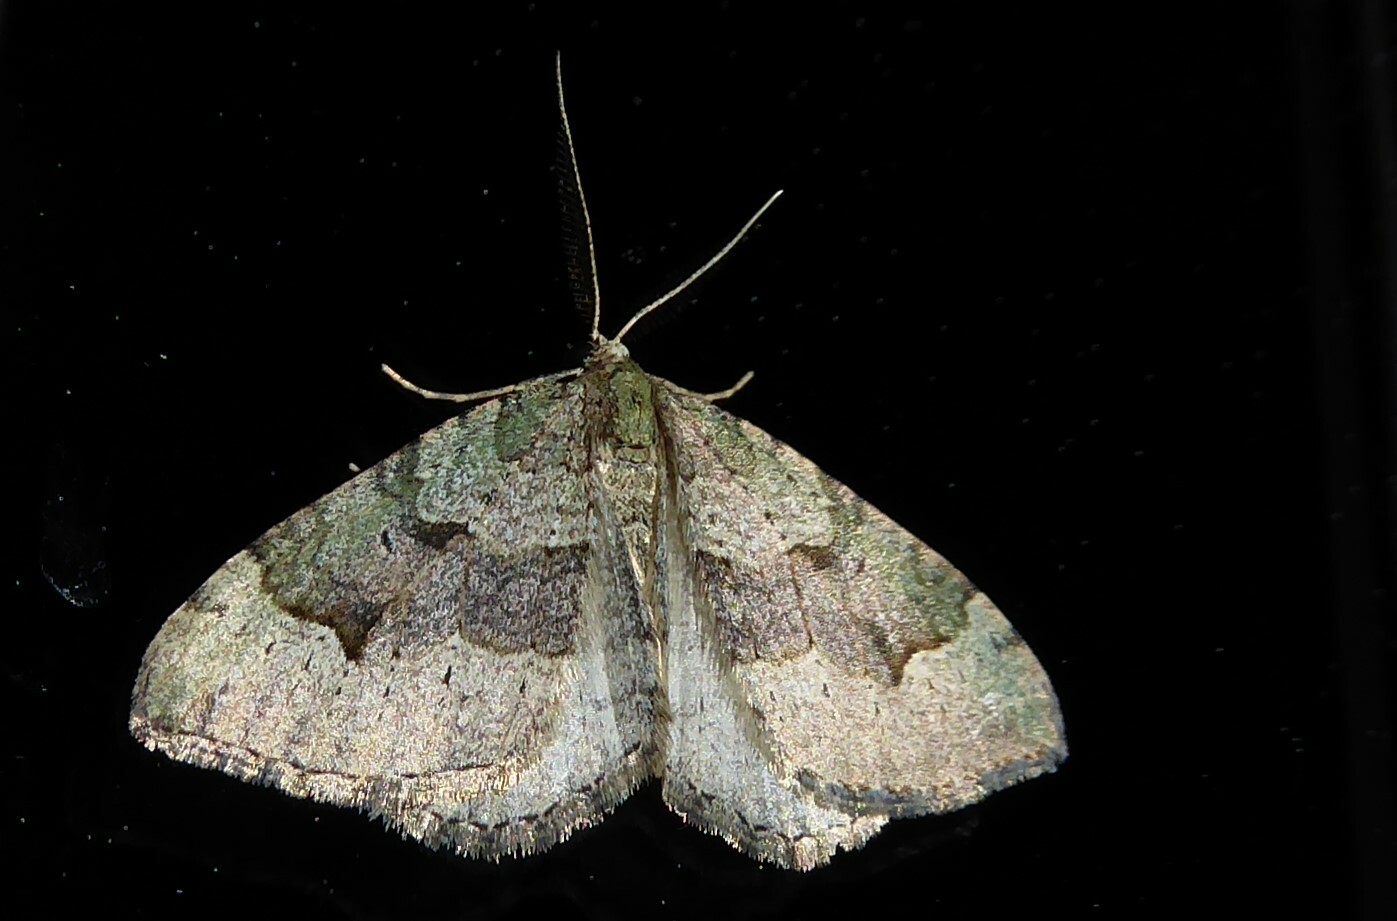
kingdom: Animalia
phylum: Arthropoda
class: Insecta
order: Lepidoptera
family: Geometridae
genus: Epyaxa
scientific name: Epyaxa rosearia
